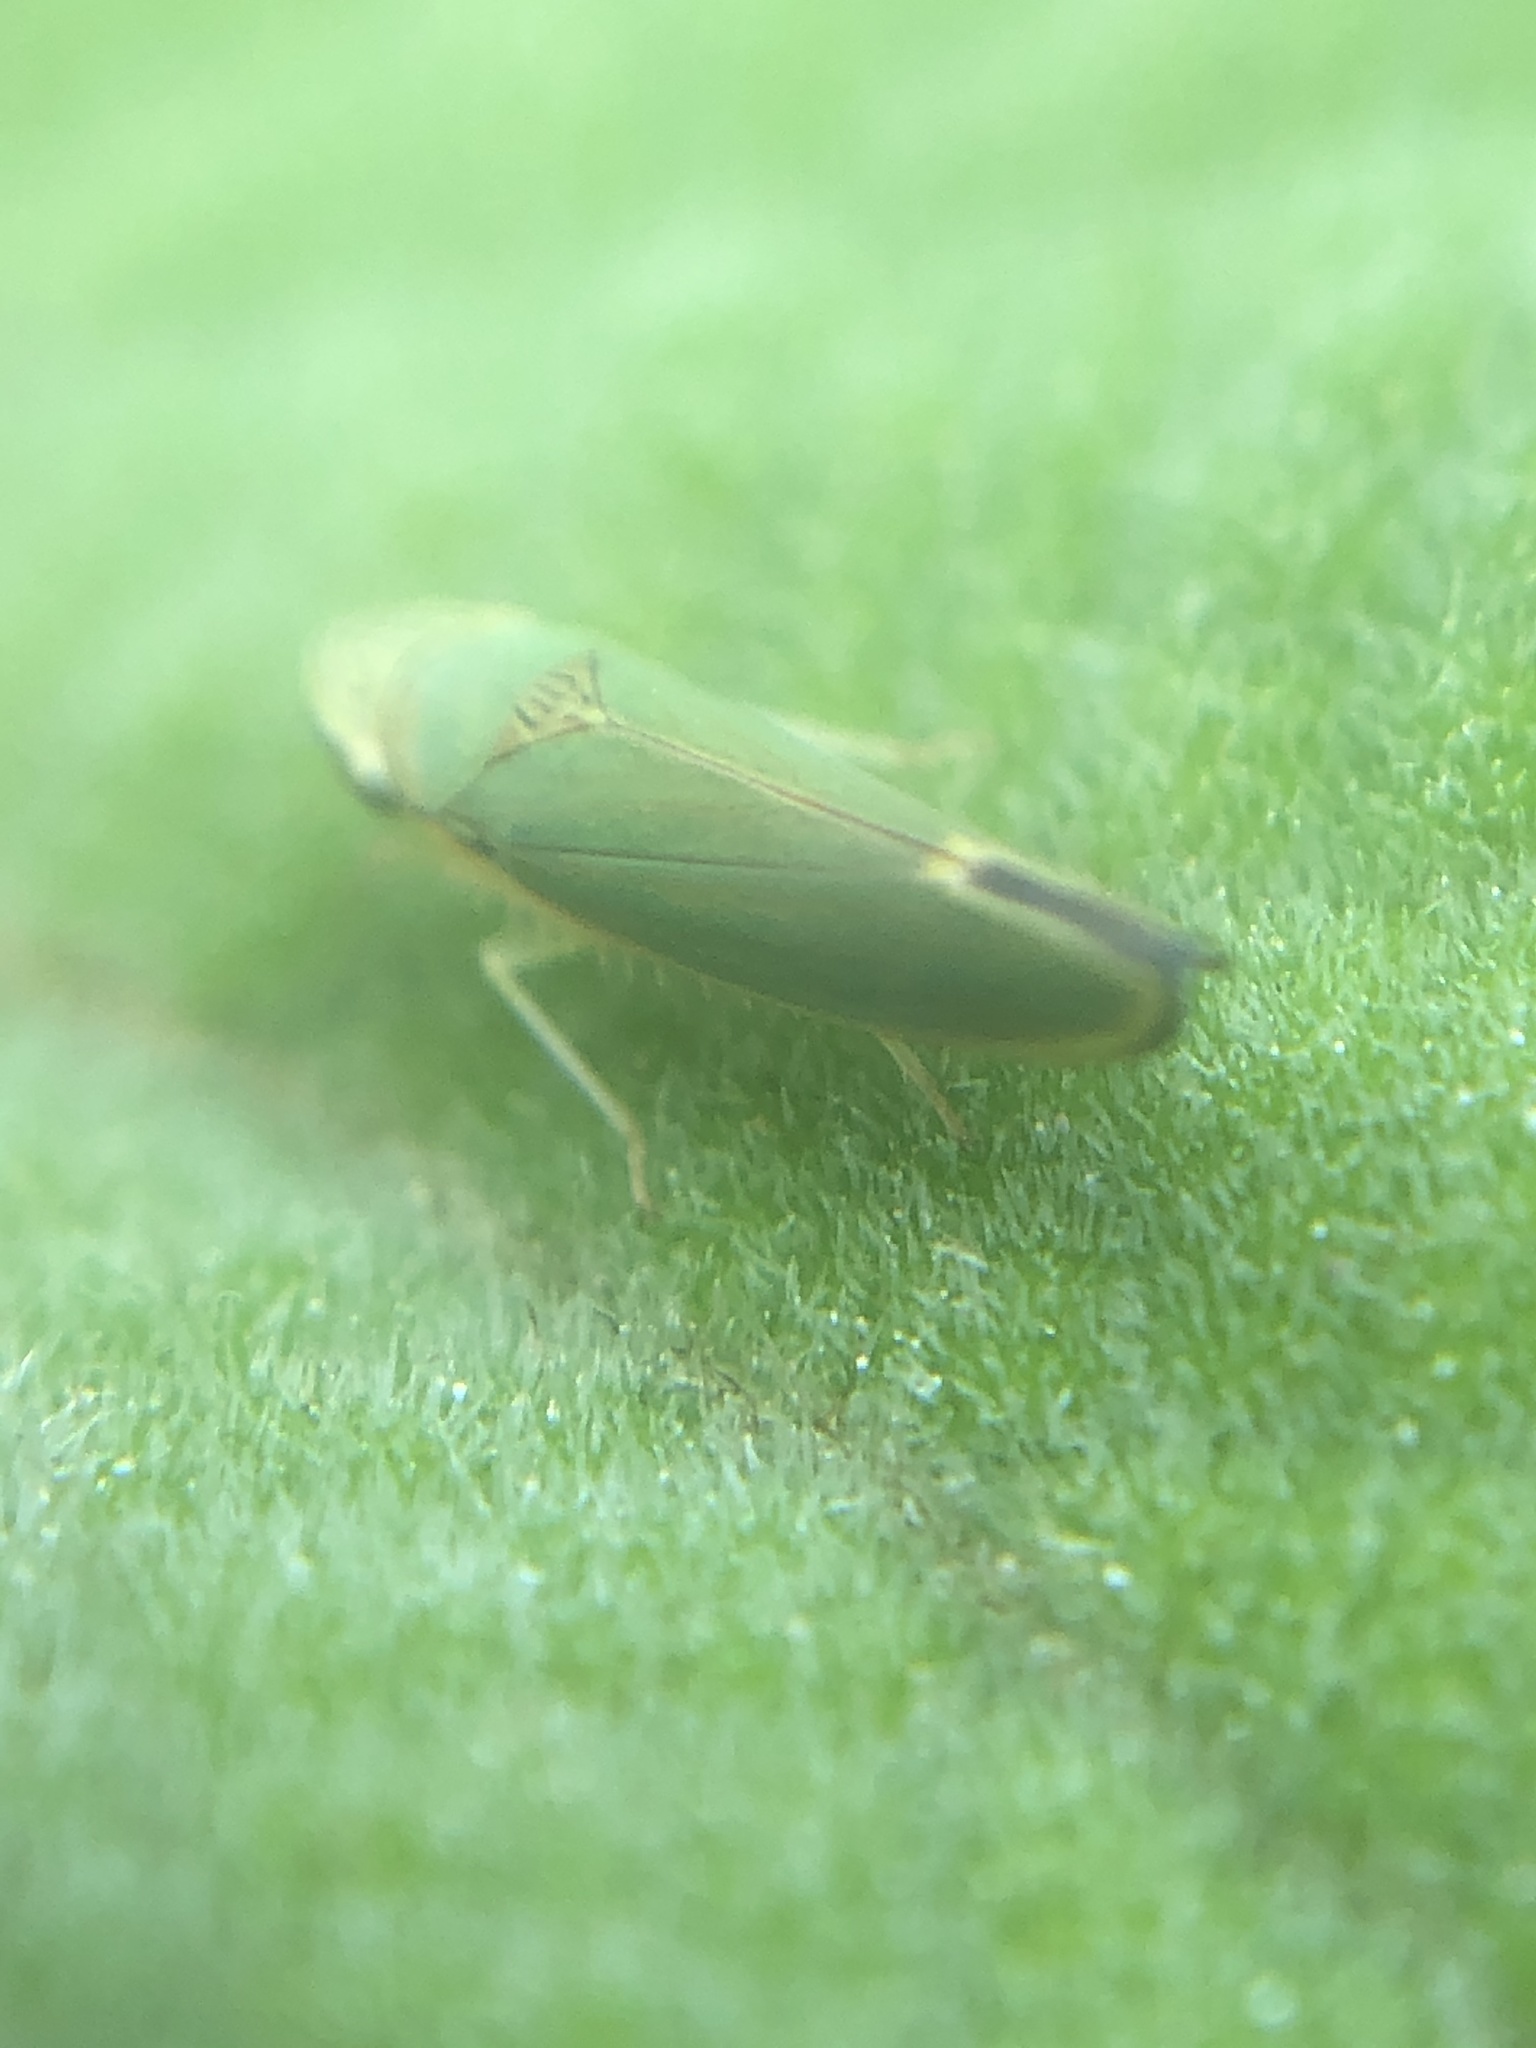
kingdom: Animalia
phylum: Arthropoda
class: Insecta
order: Hemiptera
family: Cicadellidae
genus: Graphogonalia
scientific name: Graphogonalia evagorata
